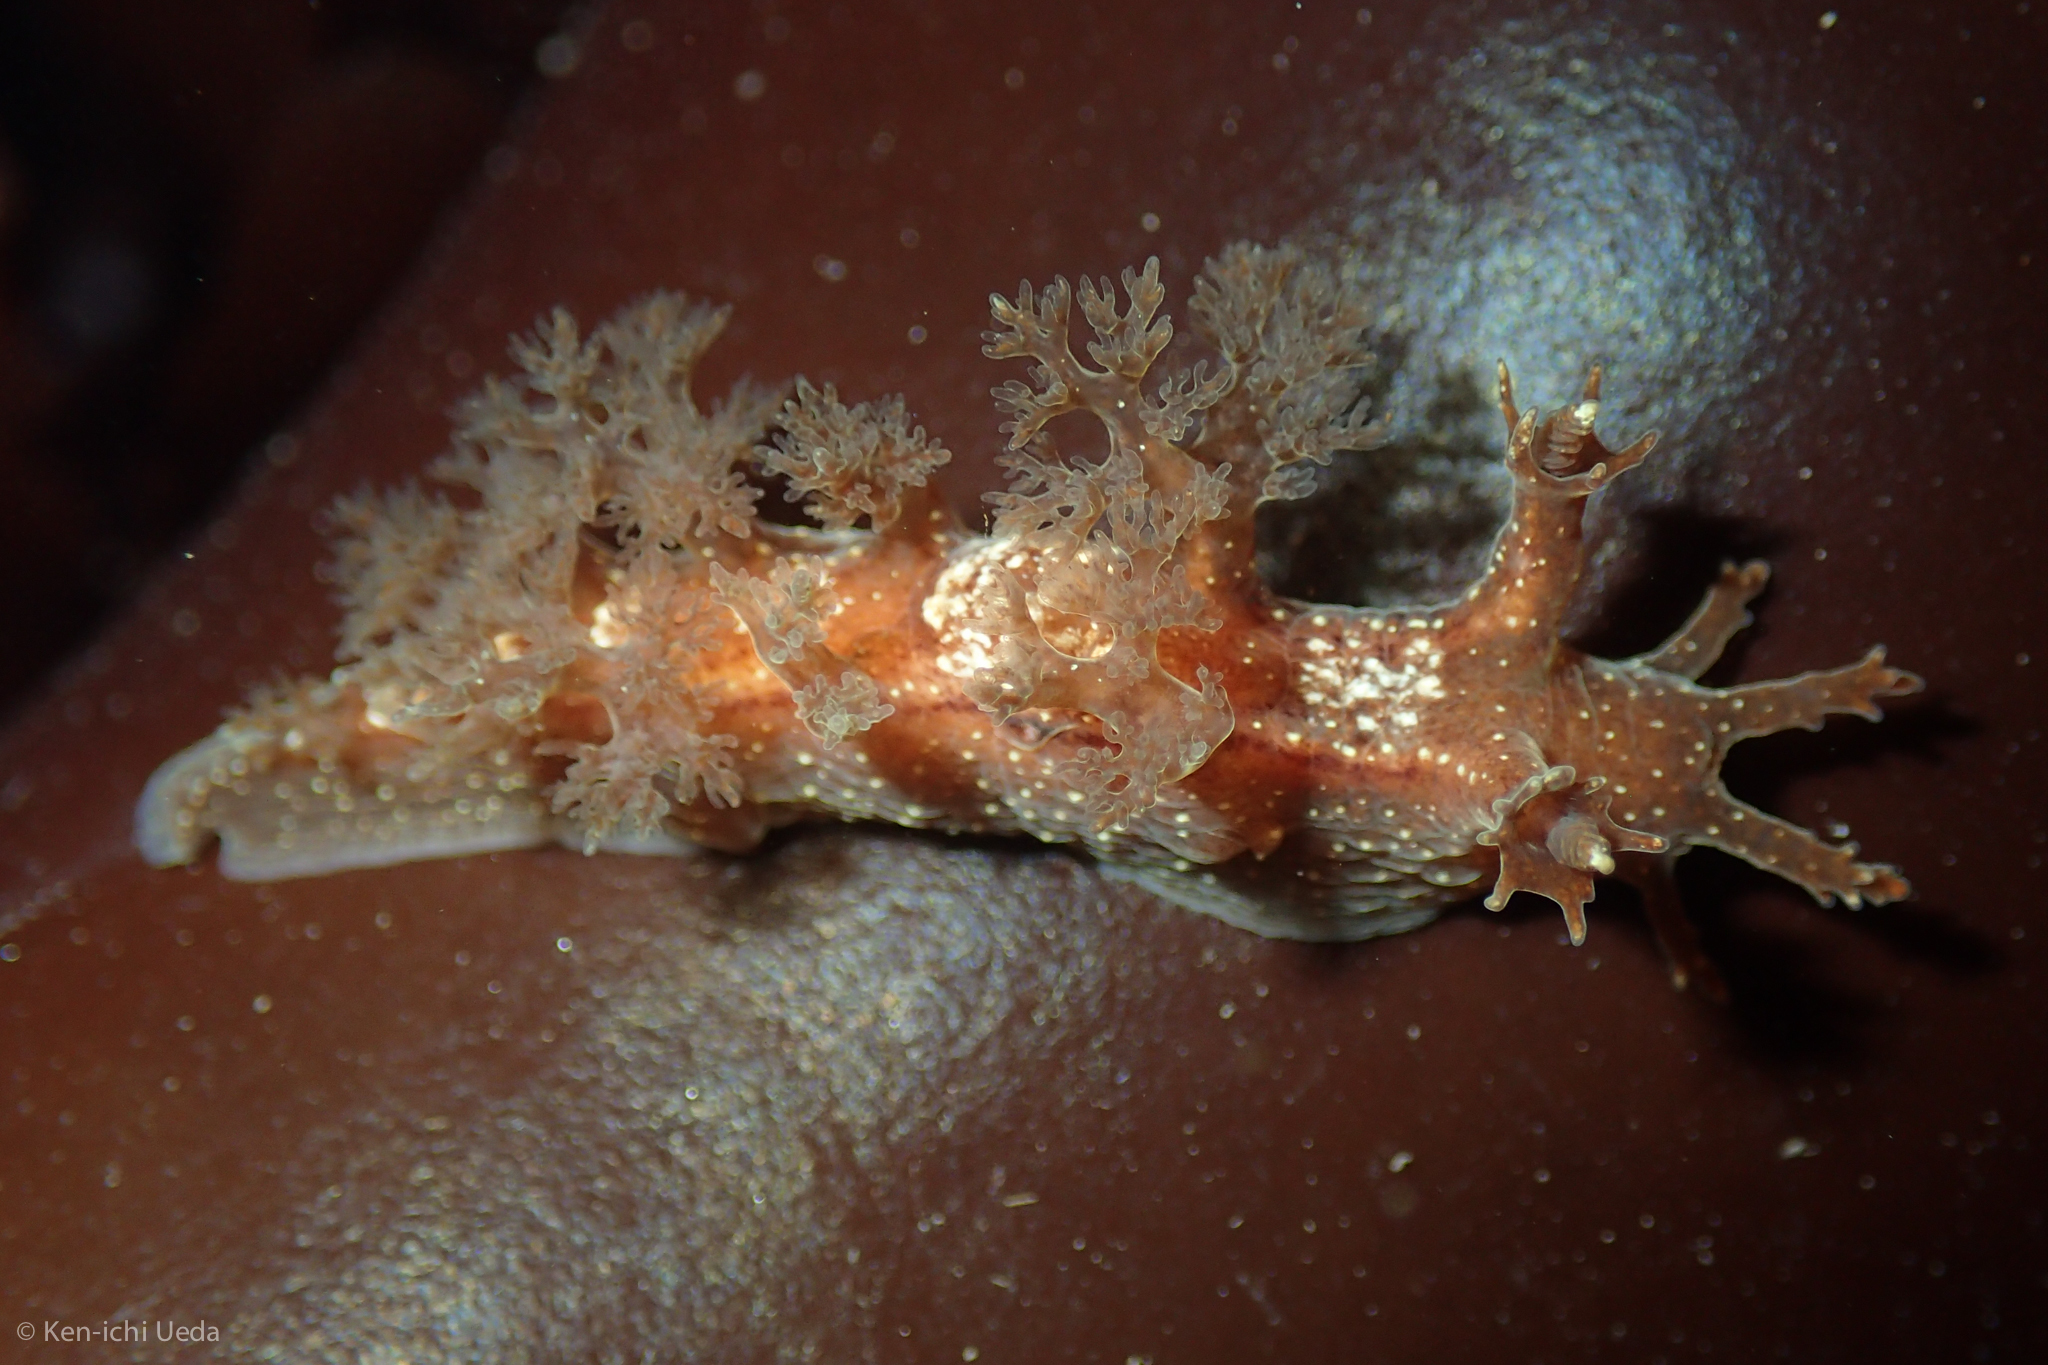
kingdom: Animalia
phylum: Mollusca
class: Gastropoda
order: Nudibranchia
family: Dendronotidae
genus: Dendronotus
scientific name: Dendronotus subramosus
